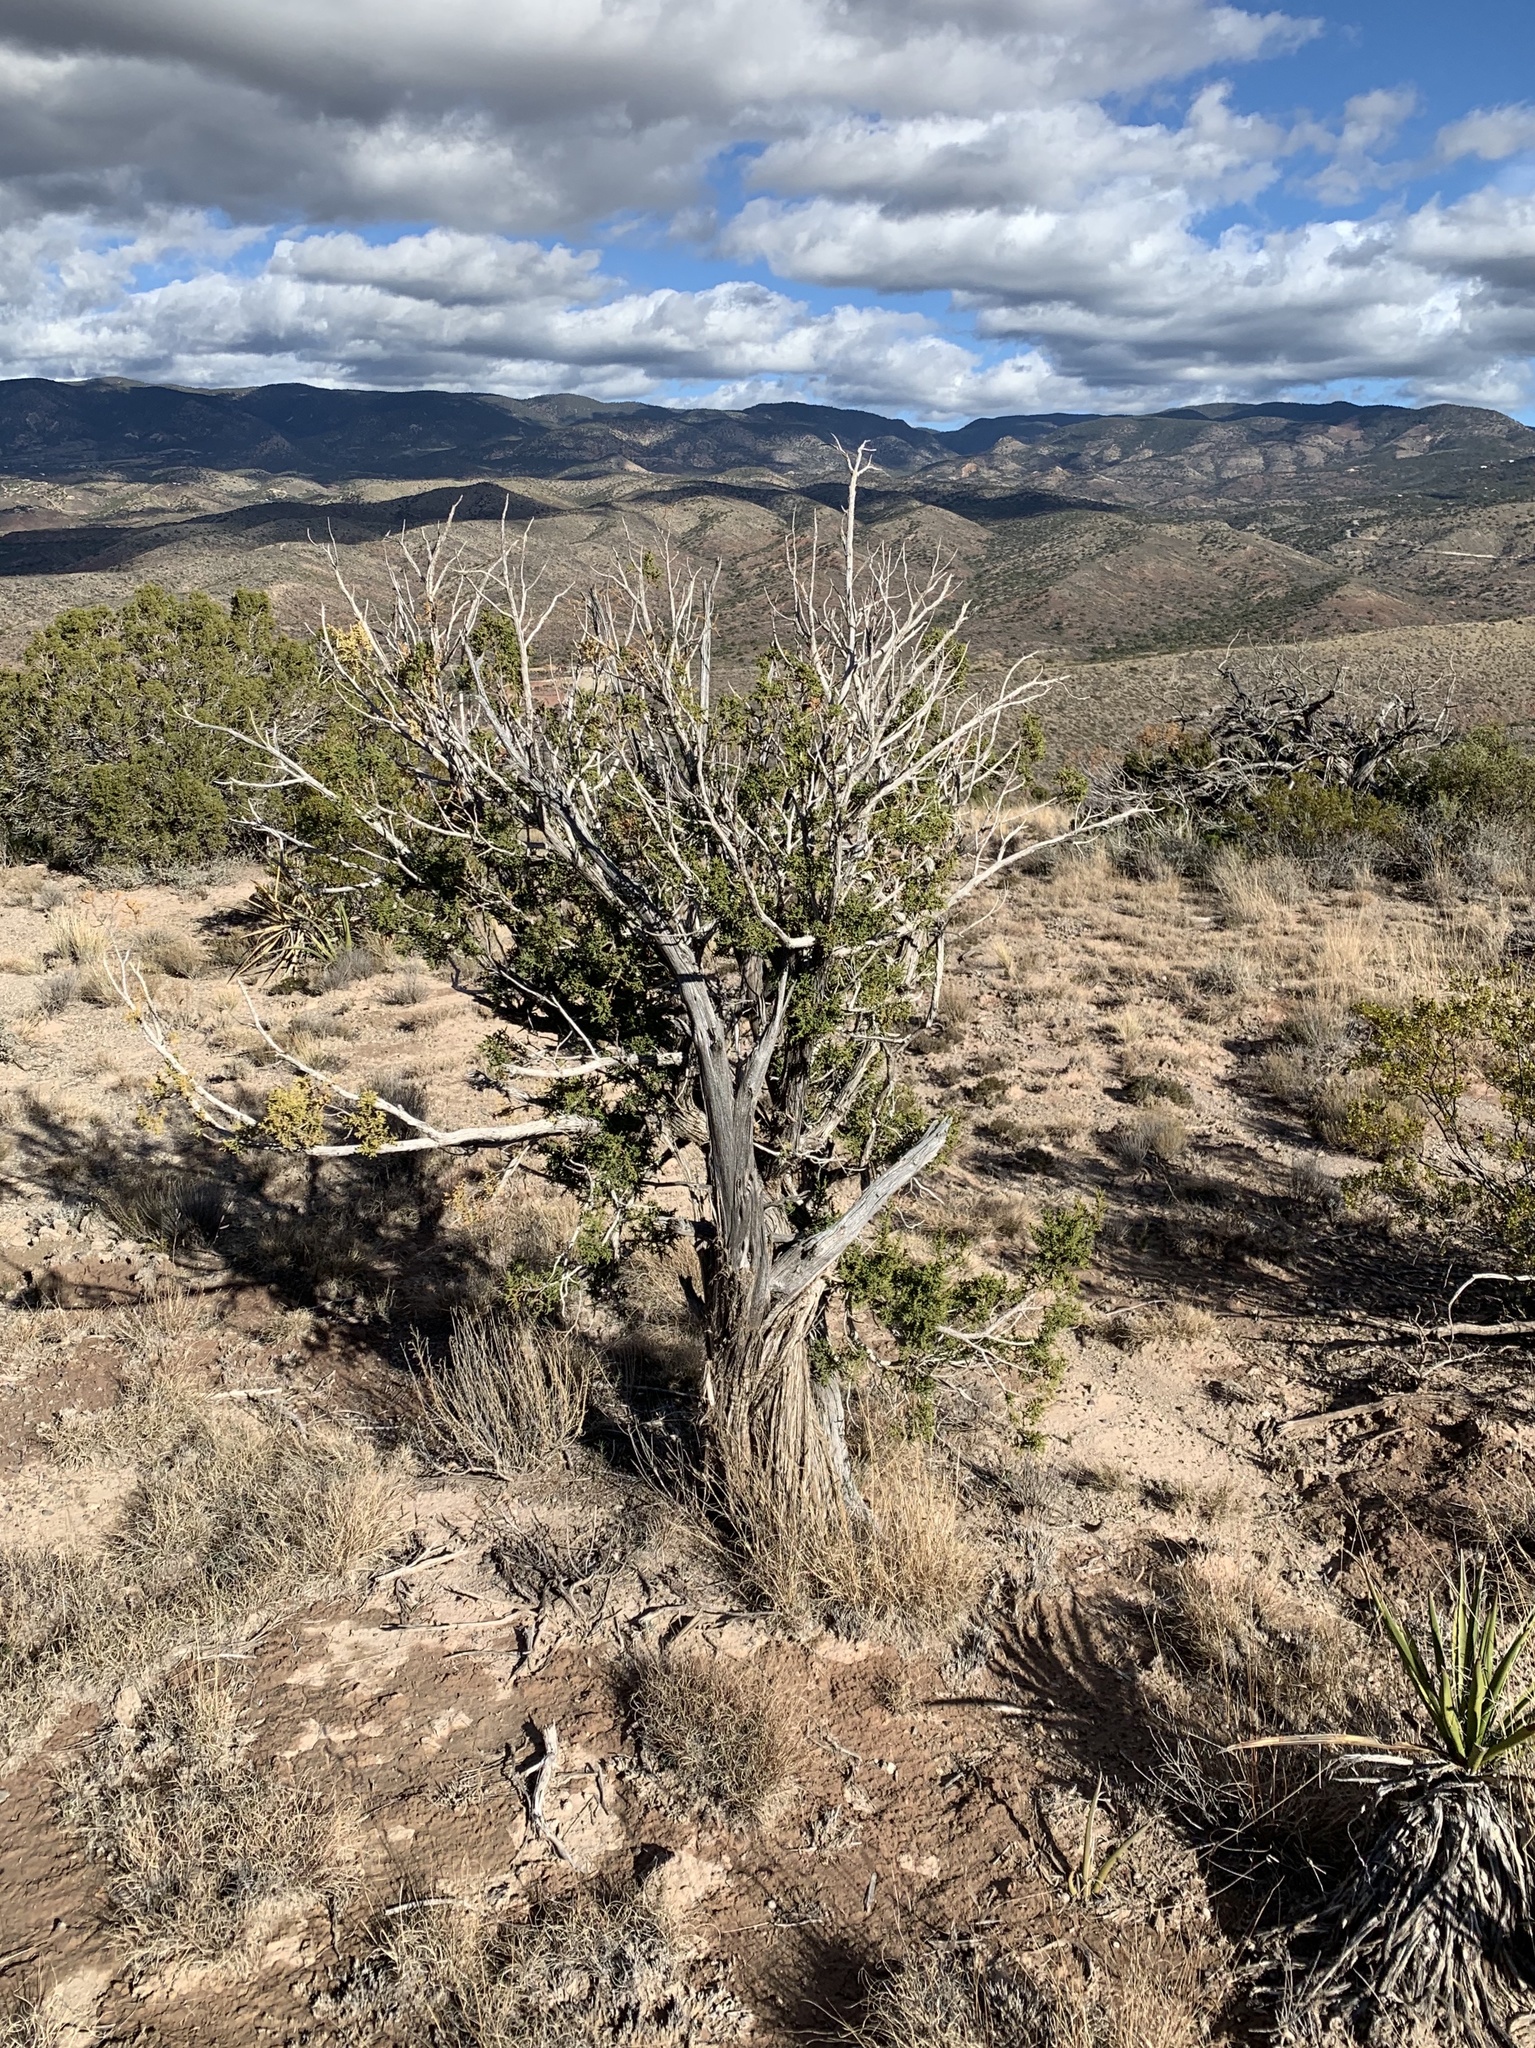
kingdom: Plantae
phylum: Tracheophyta
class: Pinopsida
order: Pinales
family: Cupressaceae
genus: Juniperus
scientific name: Juniperus monosperma
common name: One-seed juniper
